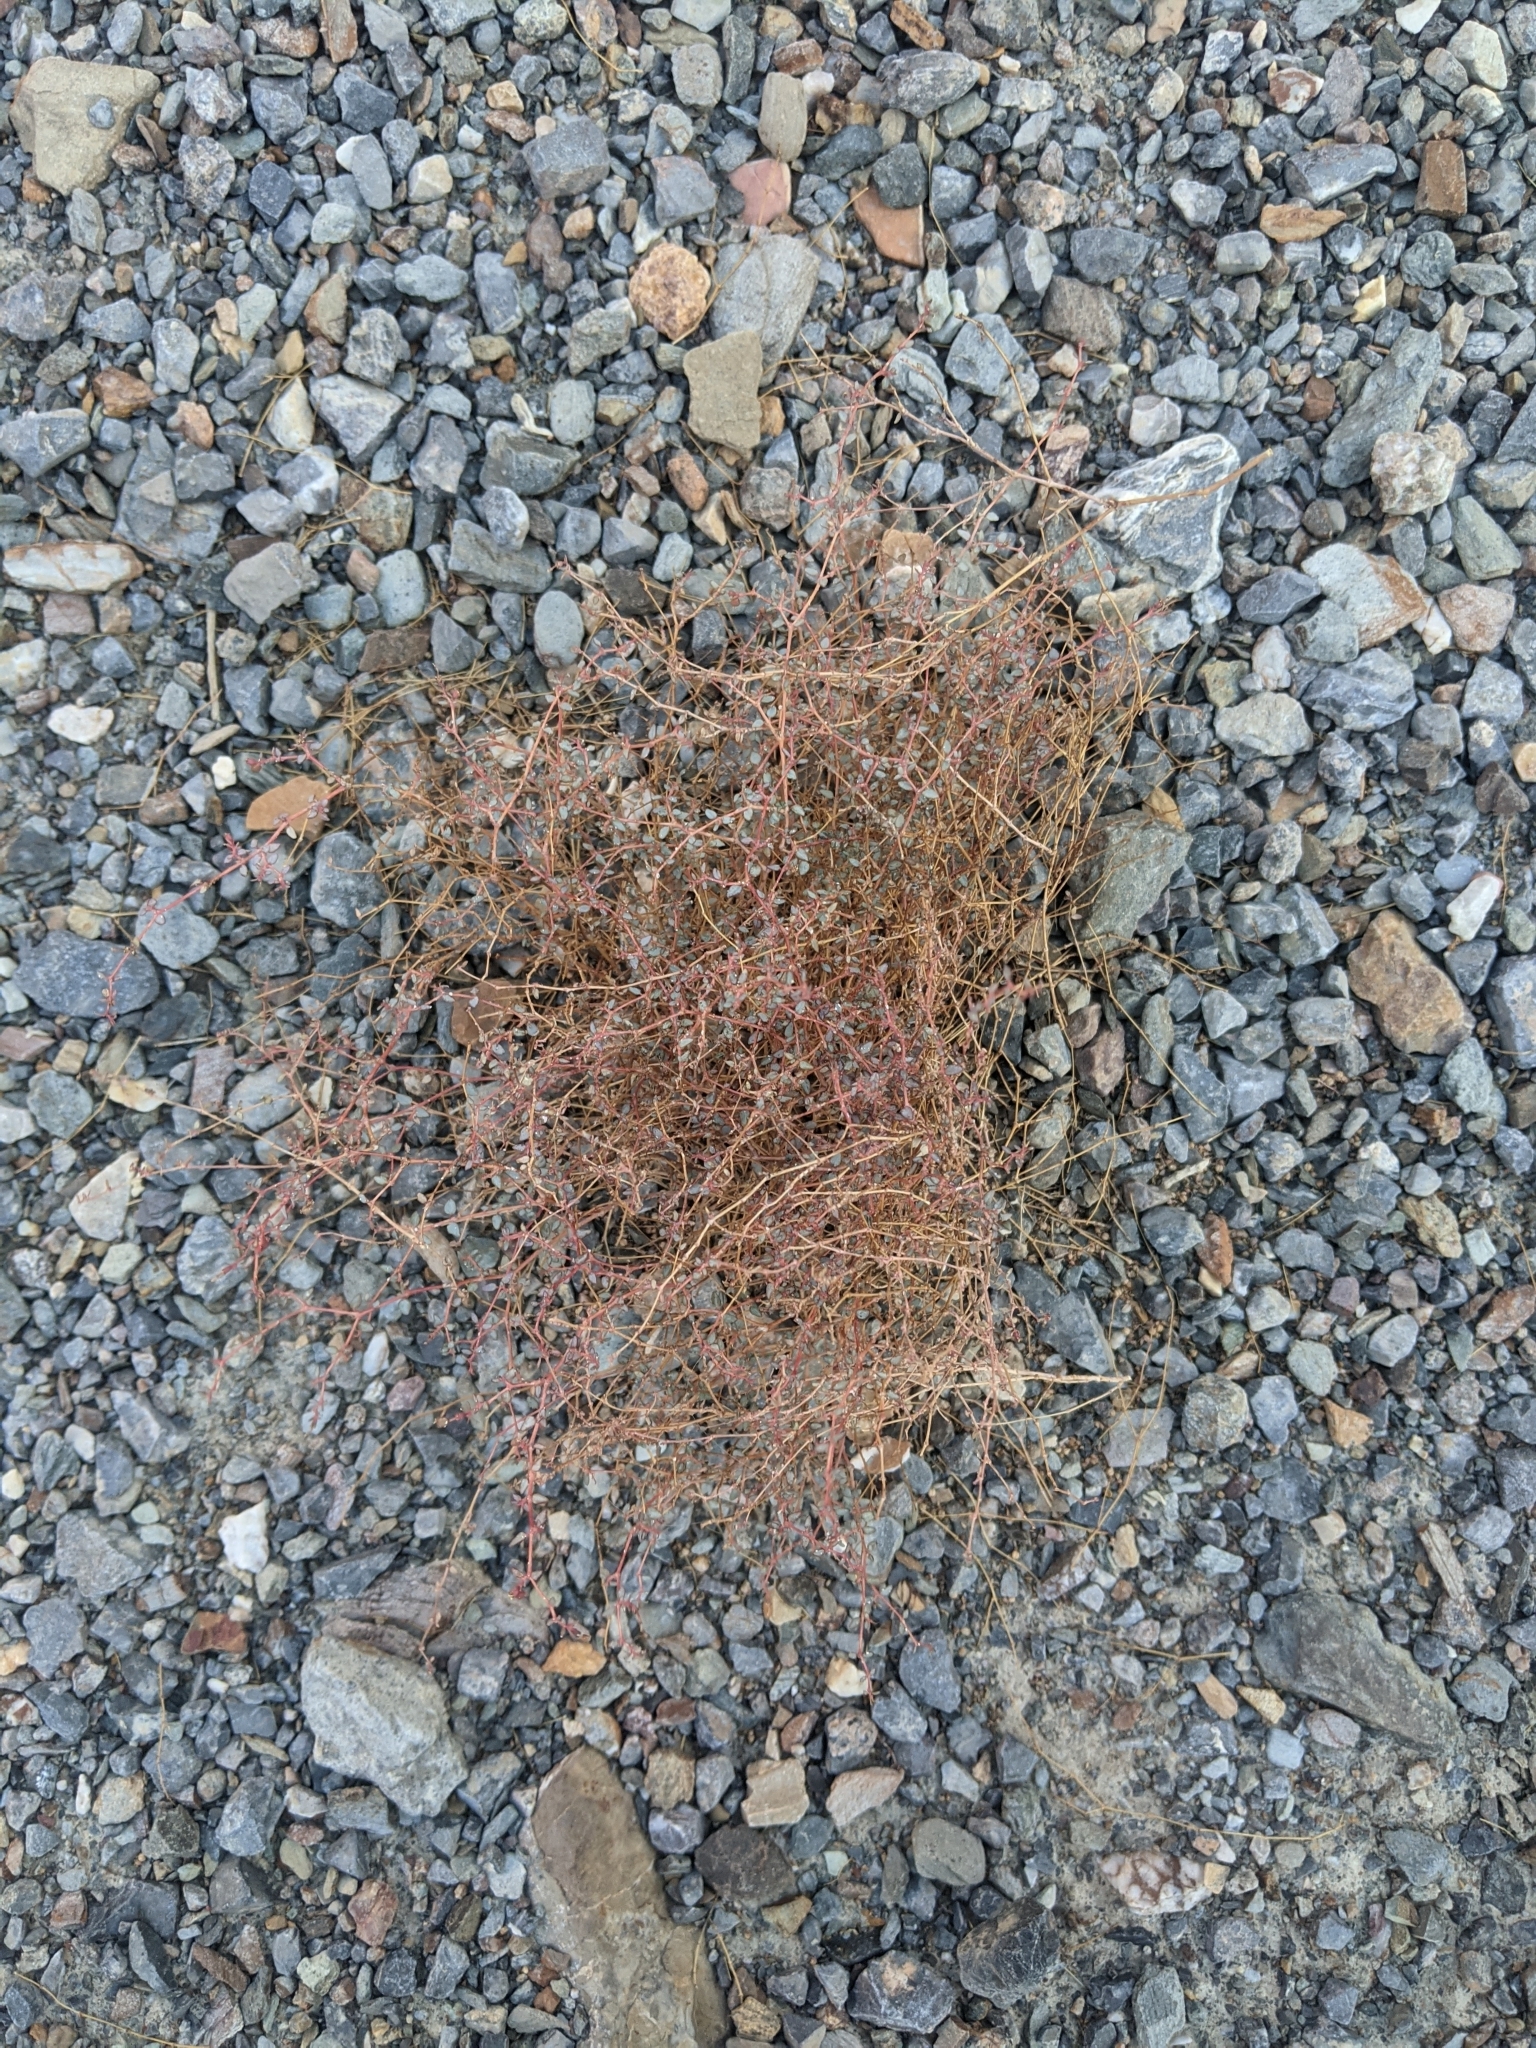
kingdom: Plantae
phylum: Tracheophyta
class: Magnoliopsida
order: Malpighiales
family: Euphorbiaceae
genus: Euphorbia
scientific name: Euphorbia parishii
